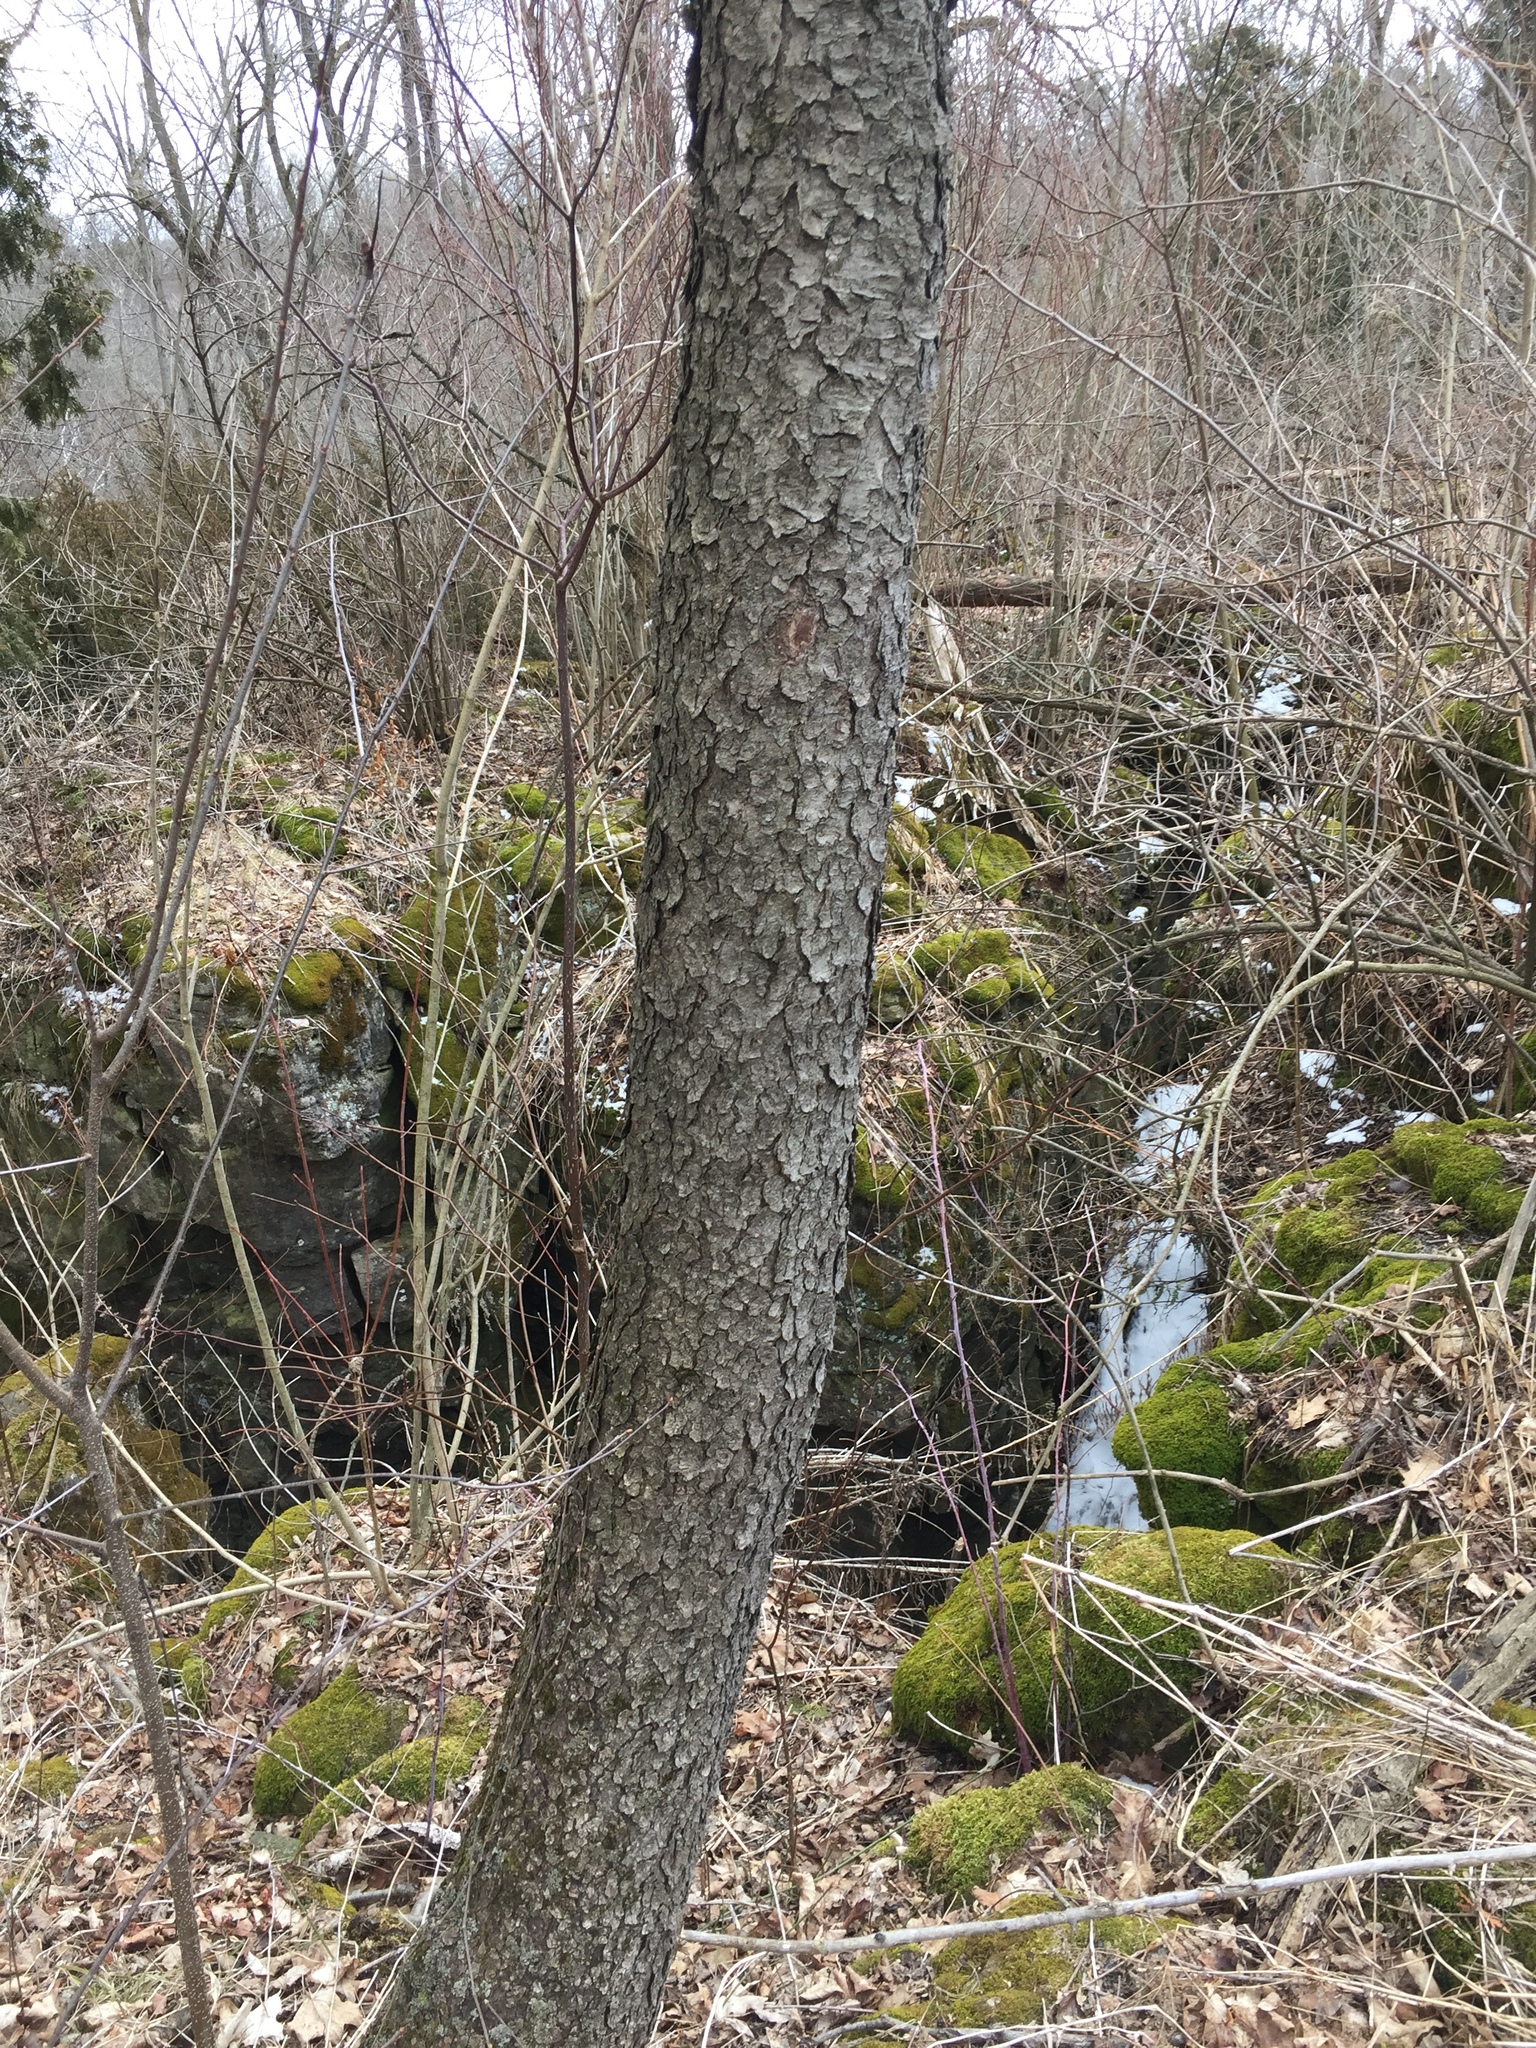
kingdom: Plantae
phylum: Tracheophyta
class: Magnoliopsida
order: Rosales
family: Rosaceae
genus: Prunus
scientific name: Prunus serotina
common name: Black cherry
